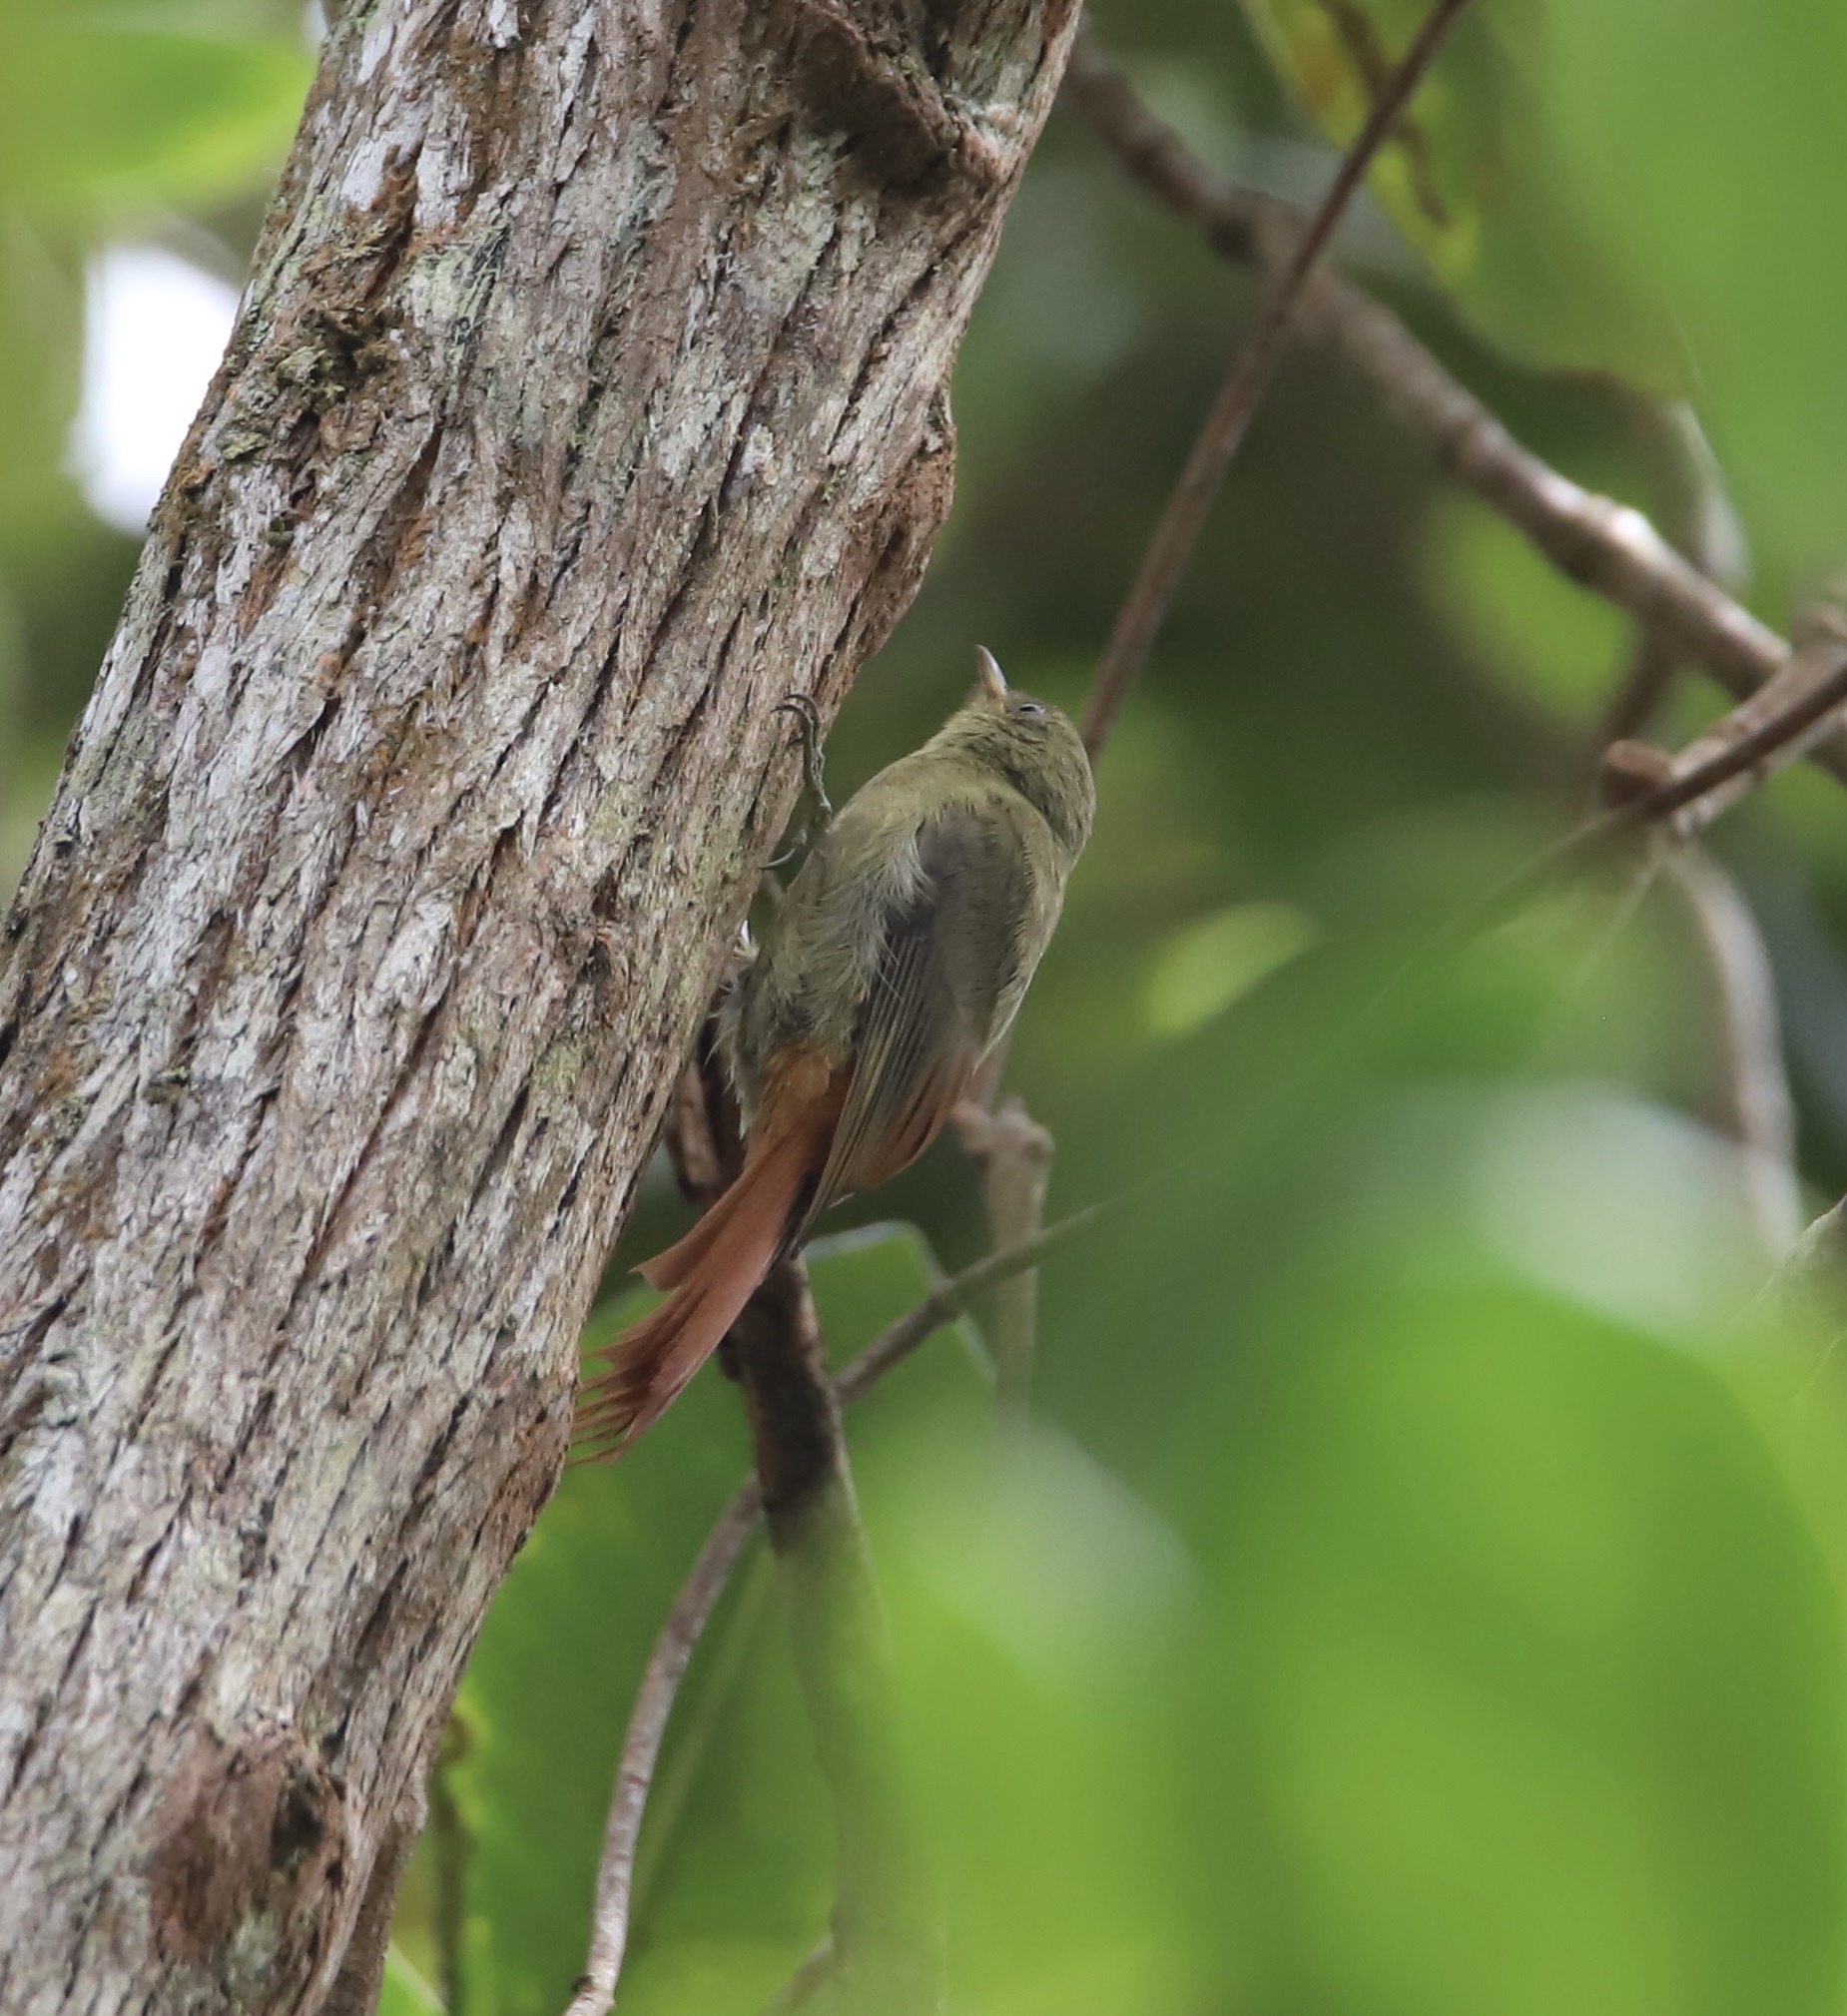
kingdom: Animalia
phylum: Chordata
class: Aves
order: Passeriformes
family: Furnariidae
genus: Sittasomus
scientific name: Sittasomus griseicapillus
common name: Olivaceous woodcreeper
